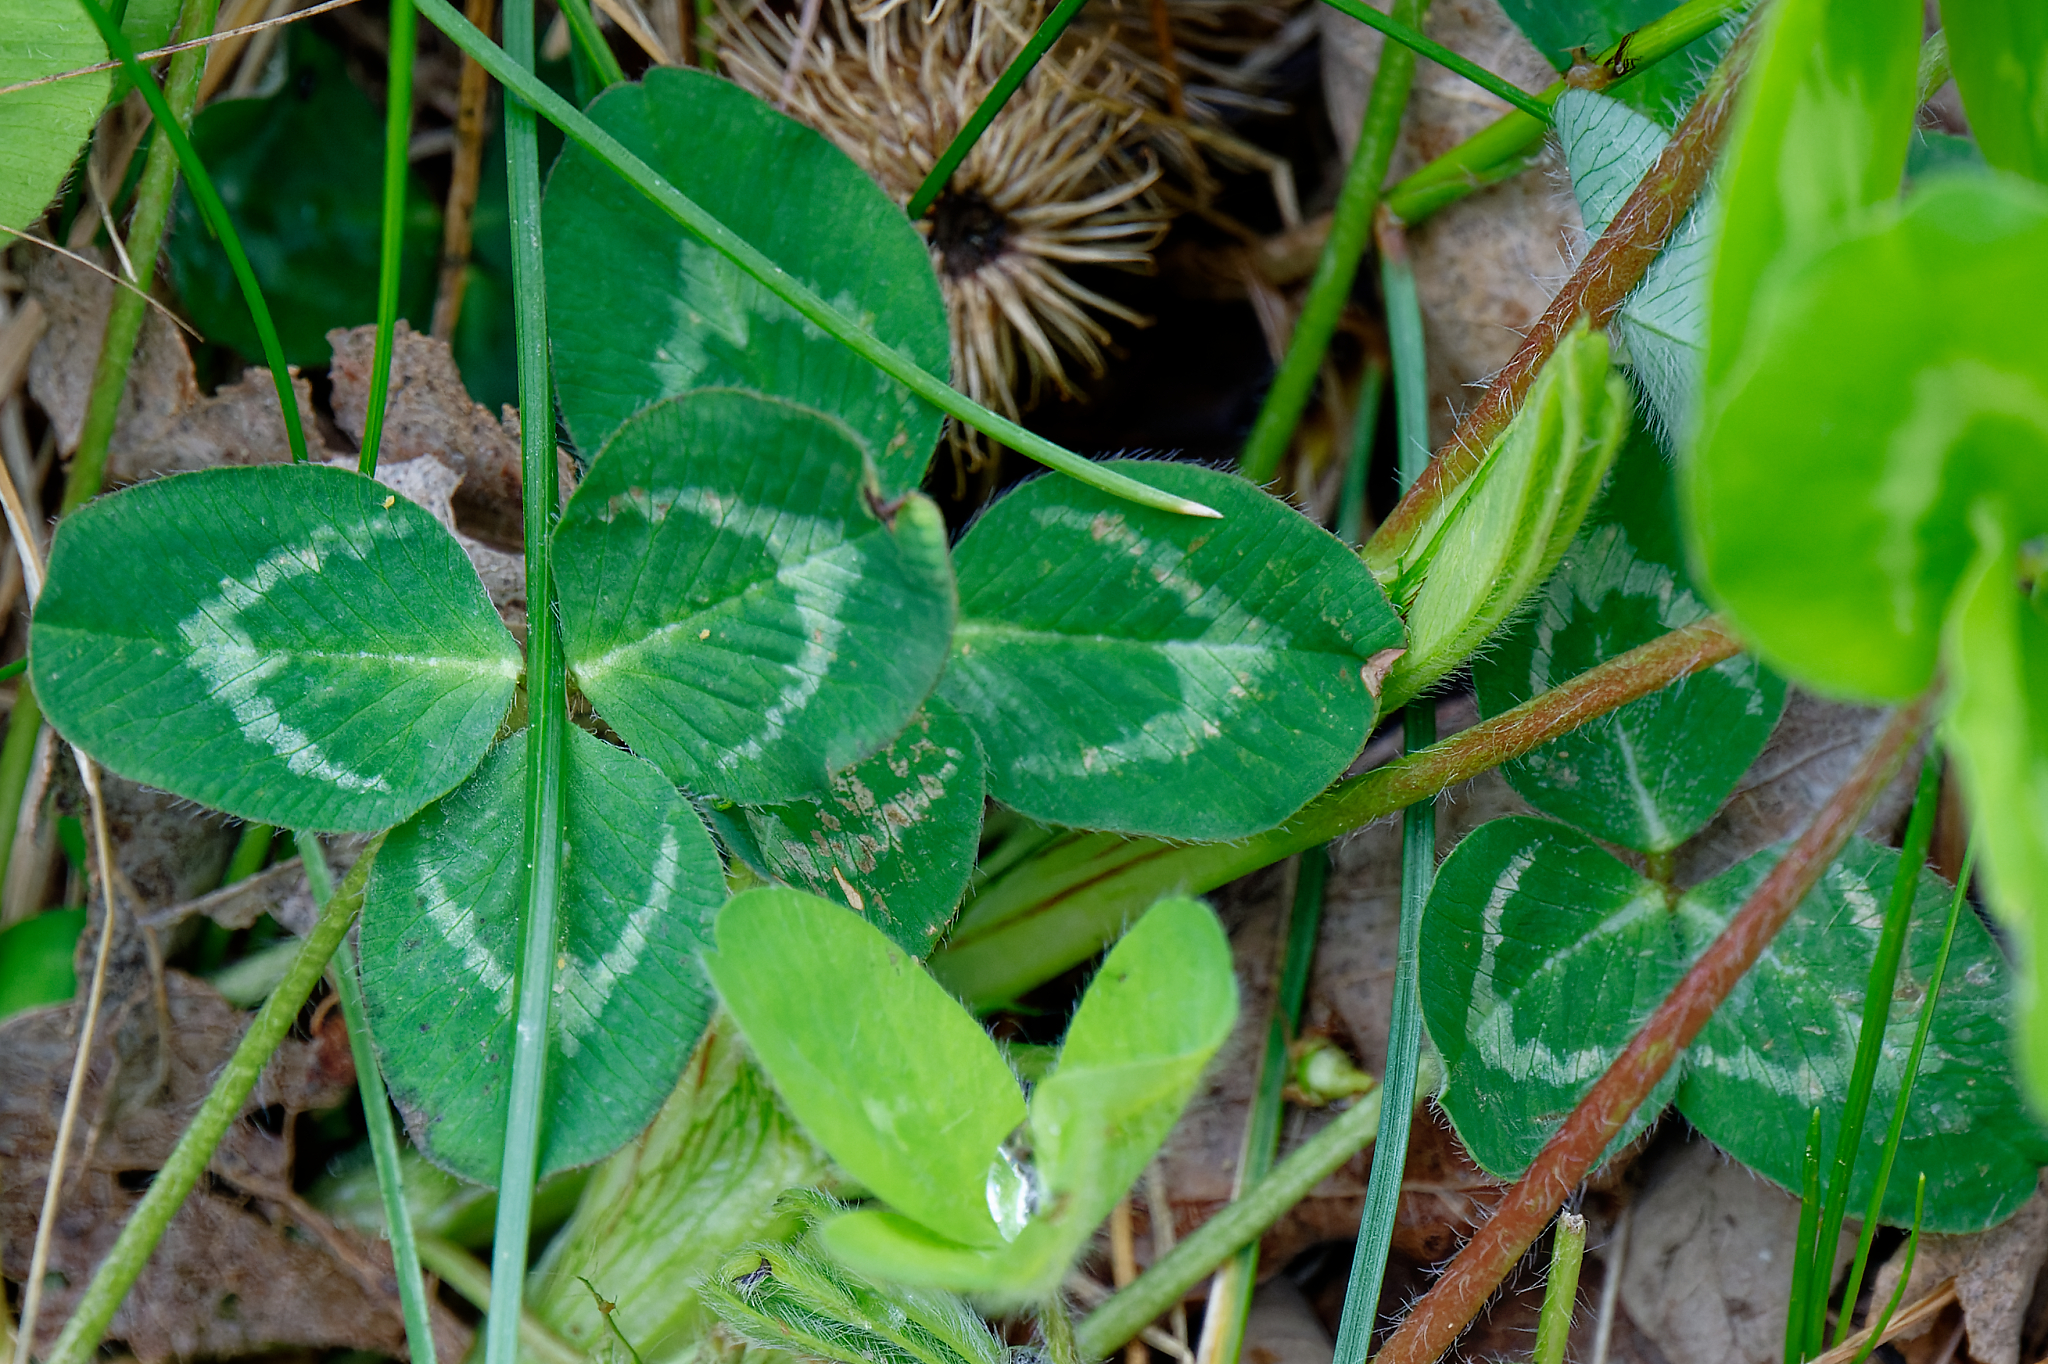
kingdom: Plantae
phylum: Tracheophyta
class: Magnoliopsida
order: Fabales
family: Fabaceae
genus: Trifolium
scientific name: Trifolium pratense
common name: Red clover
